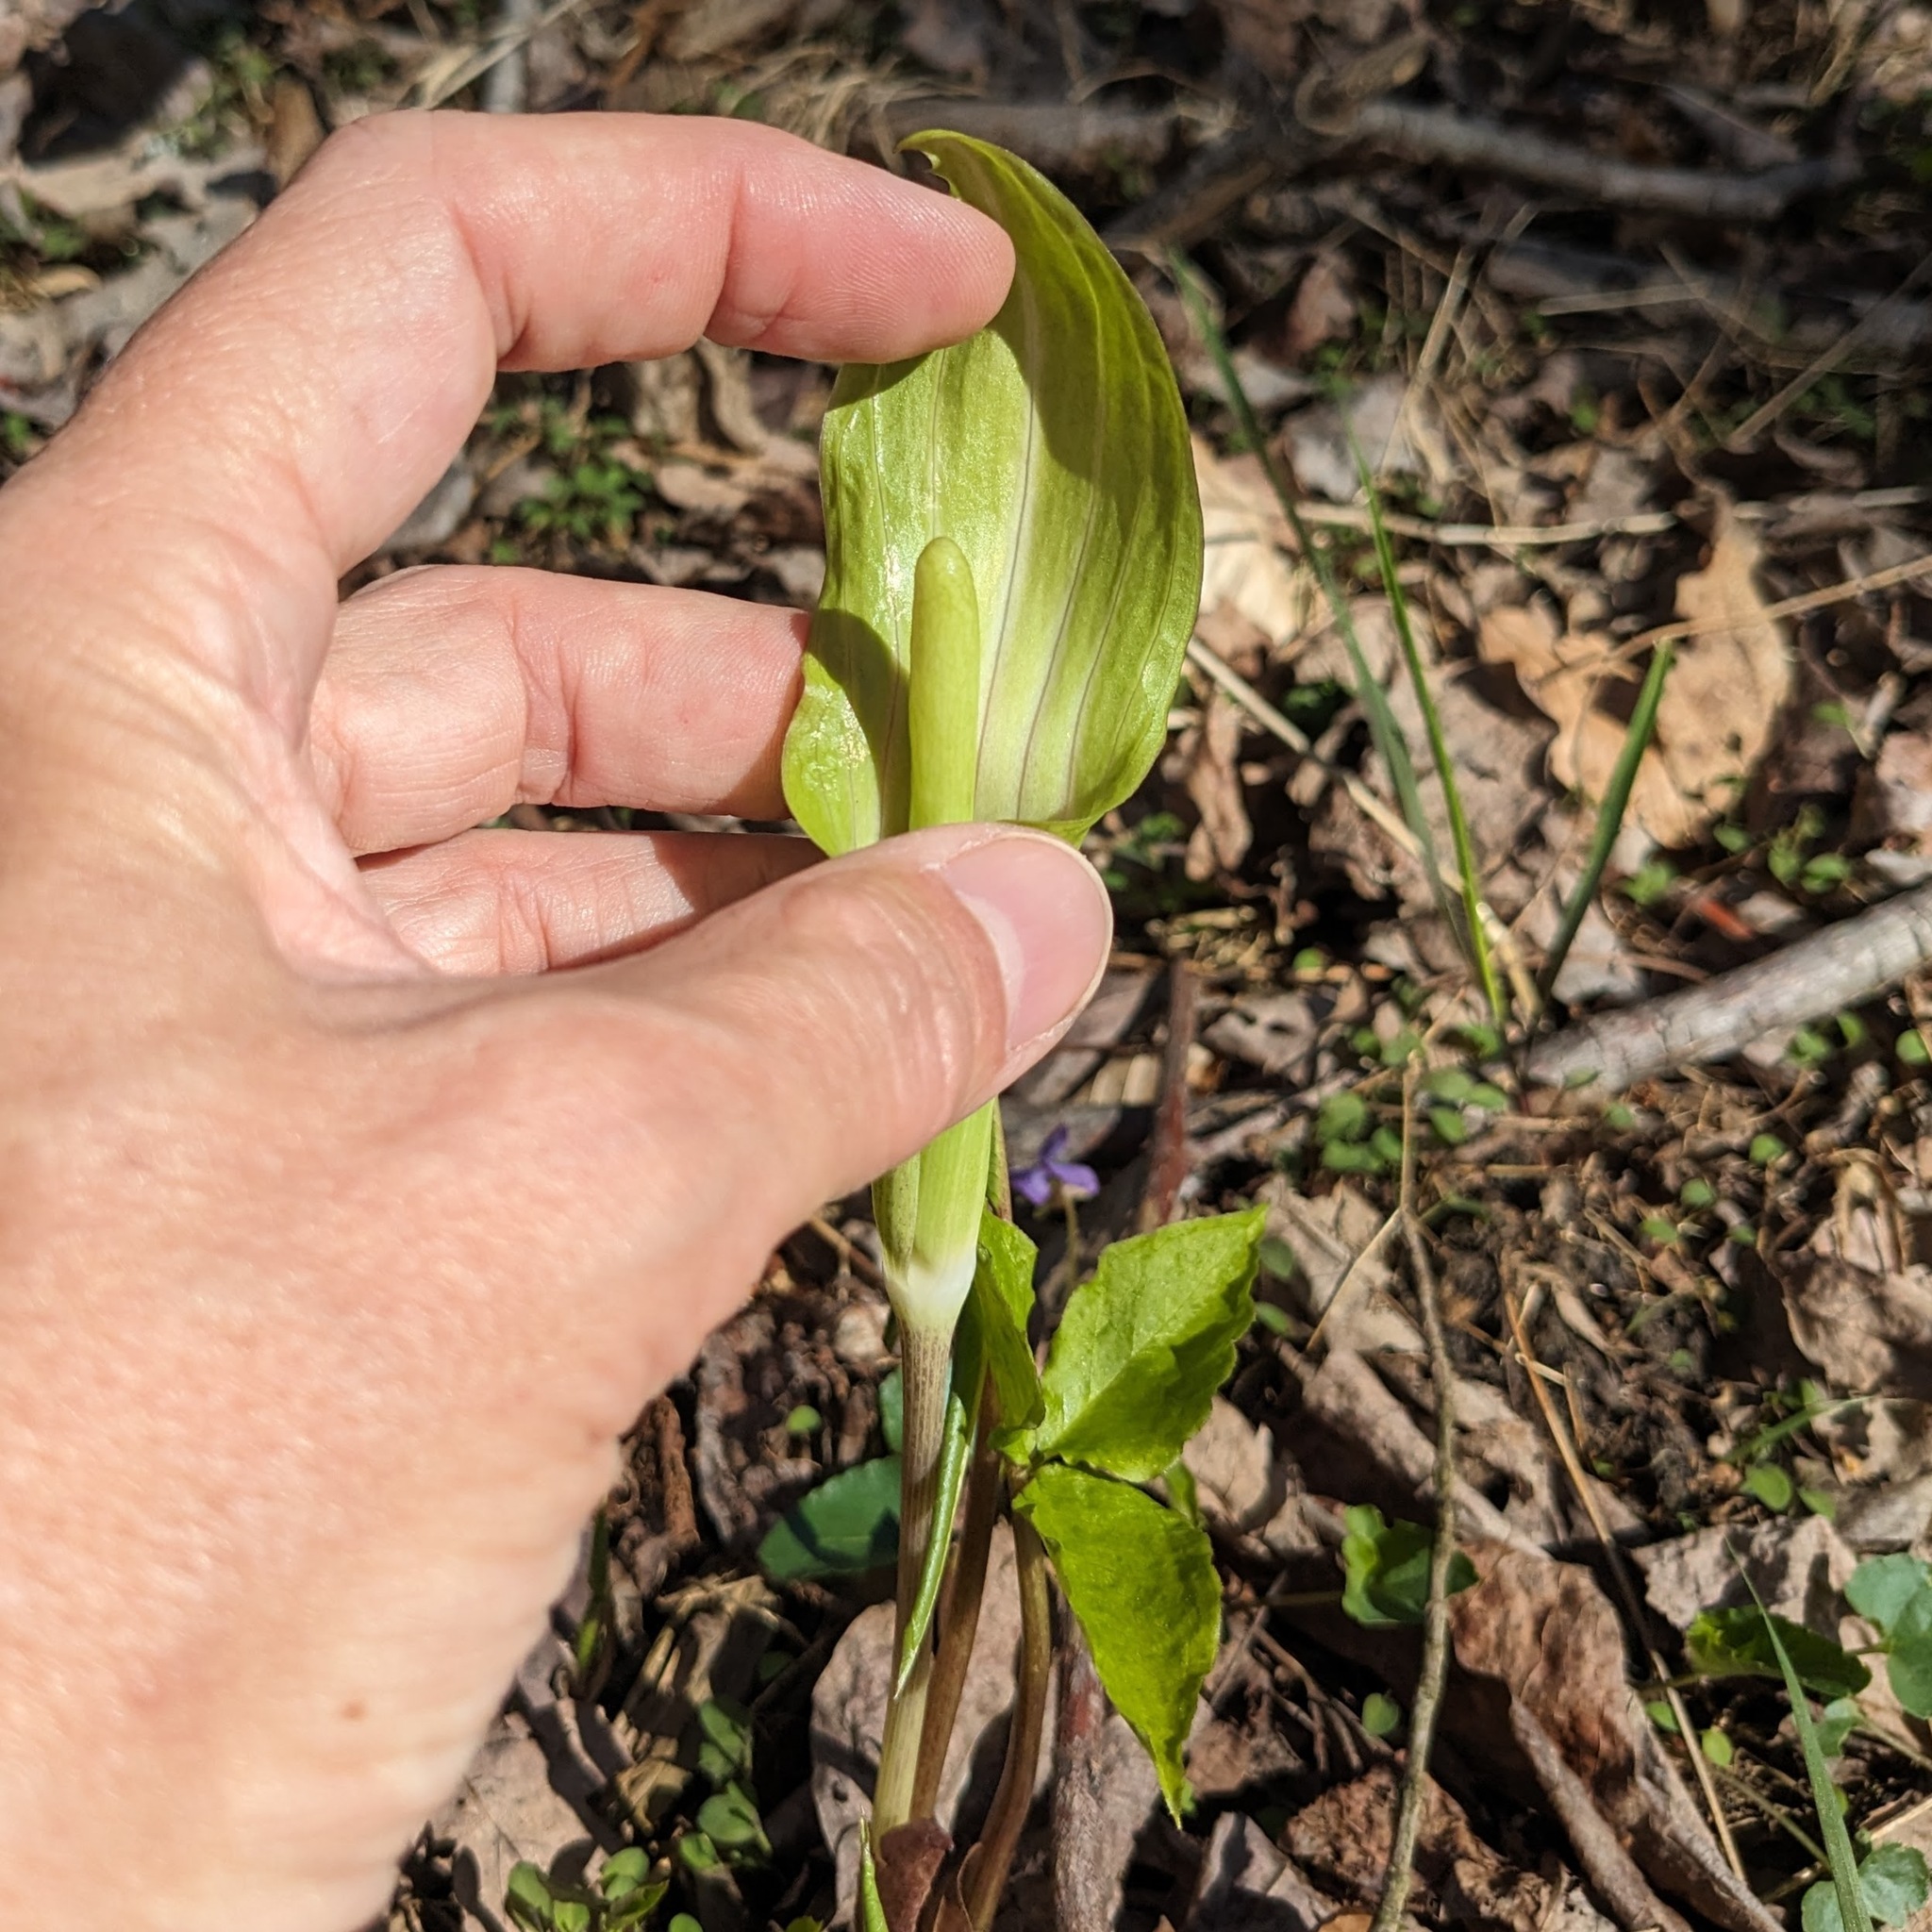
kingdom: Plantae
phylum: Tracheophyta
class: Liliopsida
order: Alismatales
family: Araceae
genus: Arisaema
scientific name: Arisaema triphyllum
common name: Jack-in-the-pulpit
